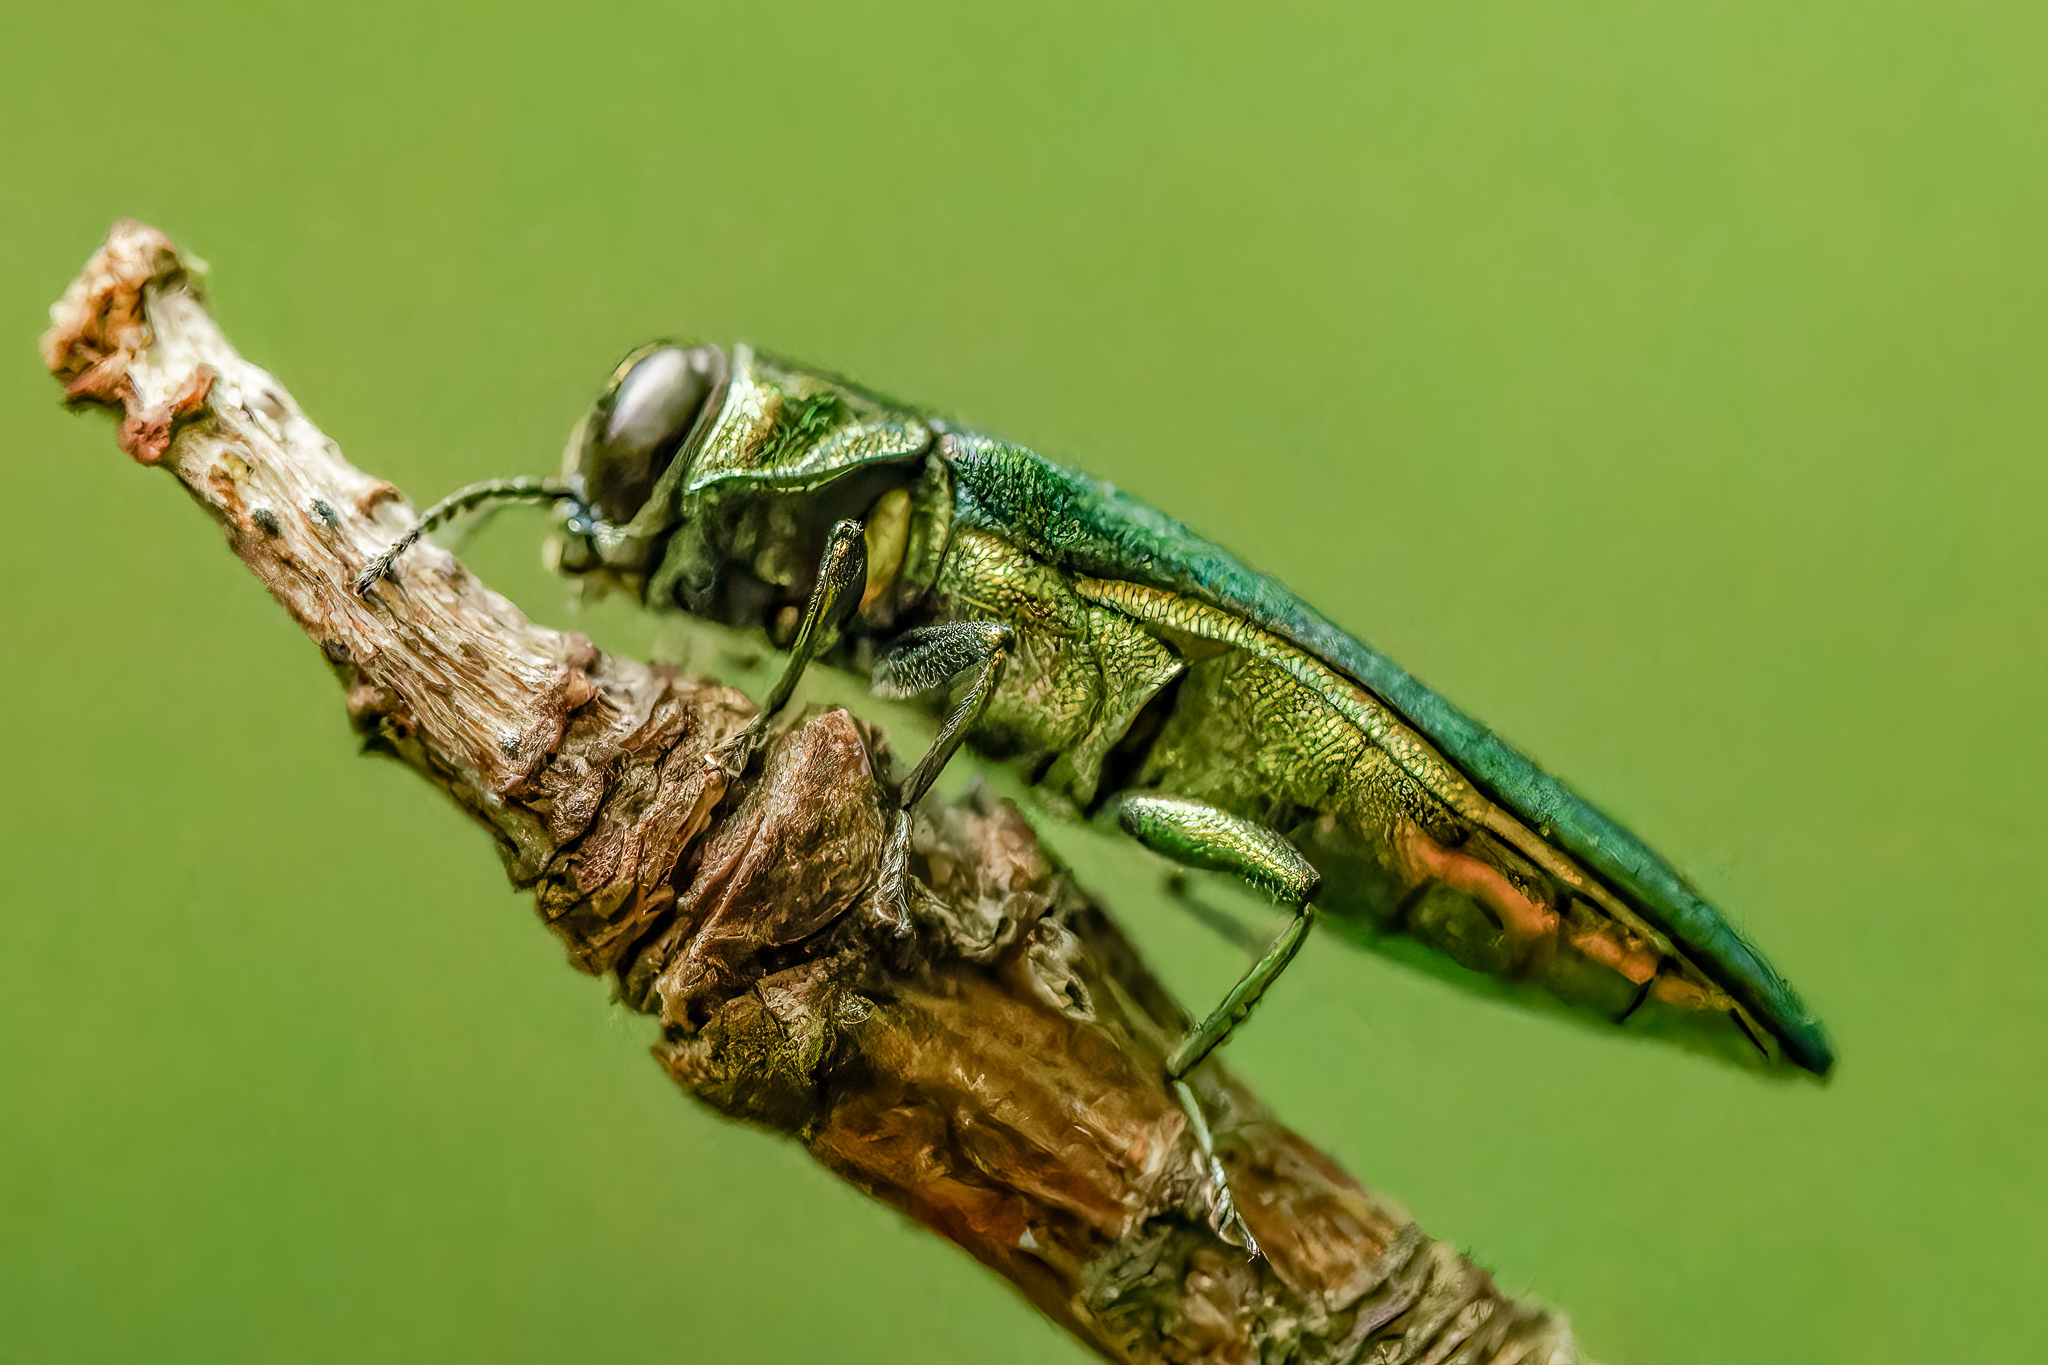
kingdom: Animalia
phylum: Arthropoda
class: Insecta
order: Coleoptera
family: Buprestidae
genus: Agrilus
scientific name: Agrilus planipennis
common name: Emerald ash borer
